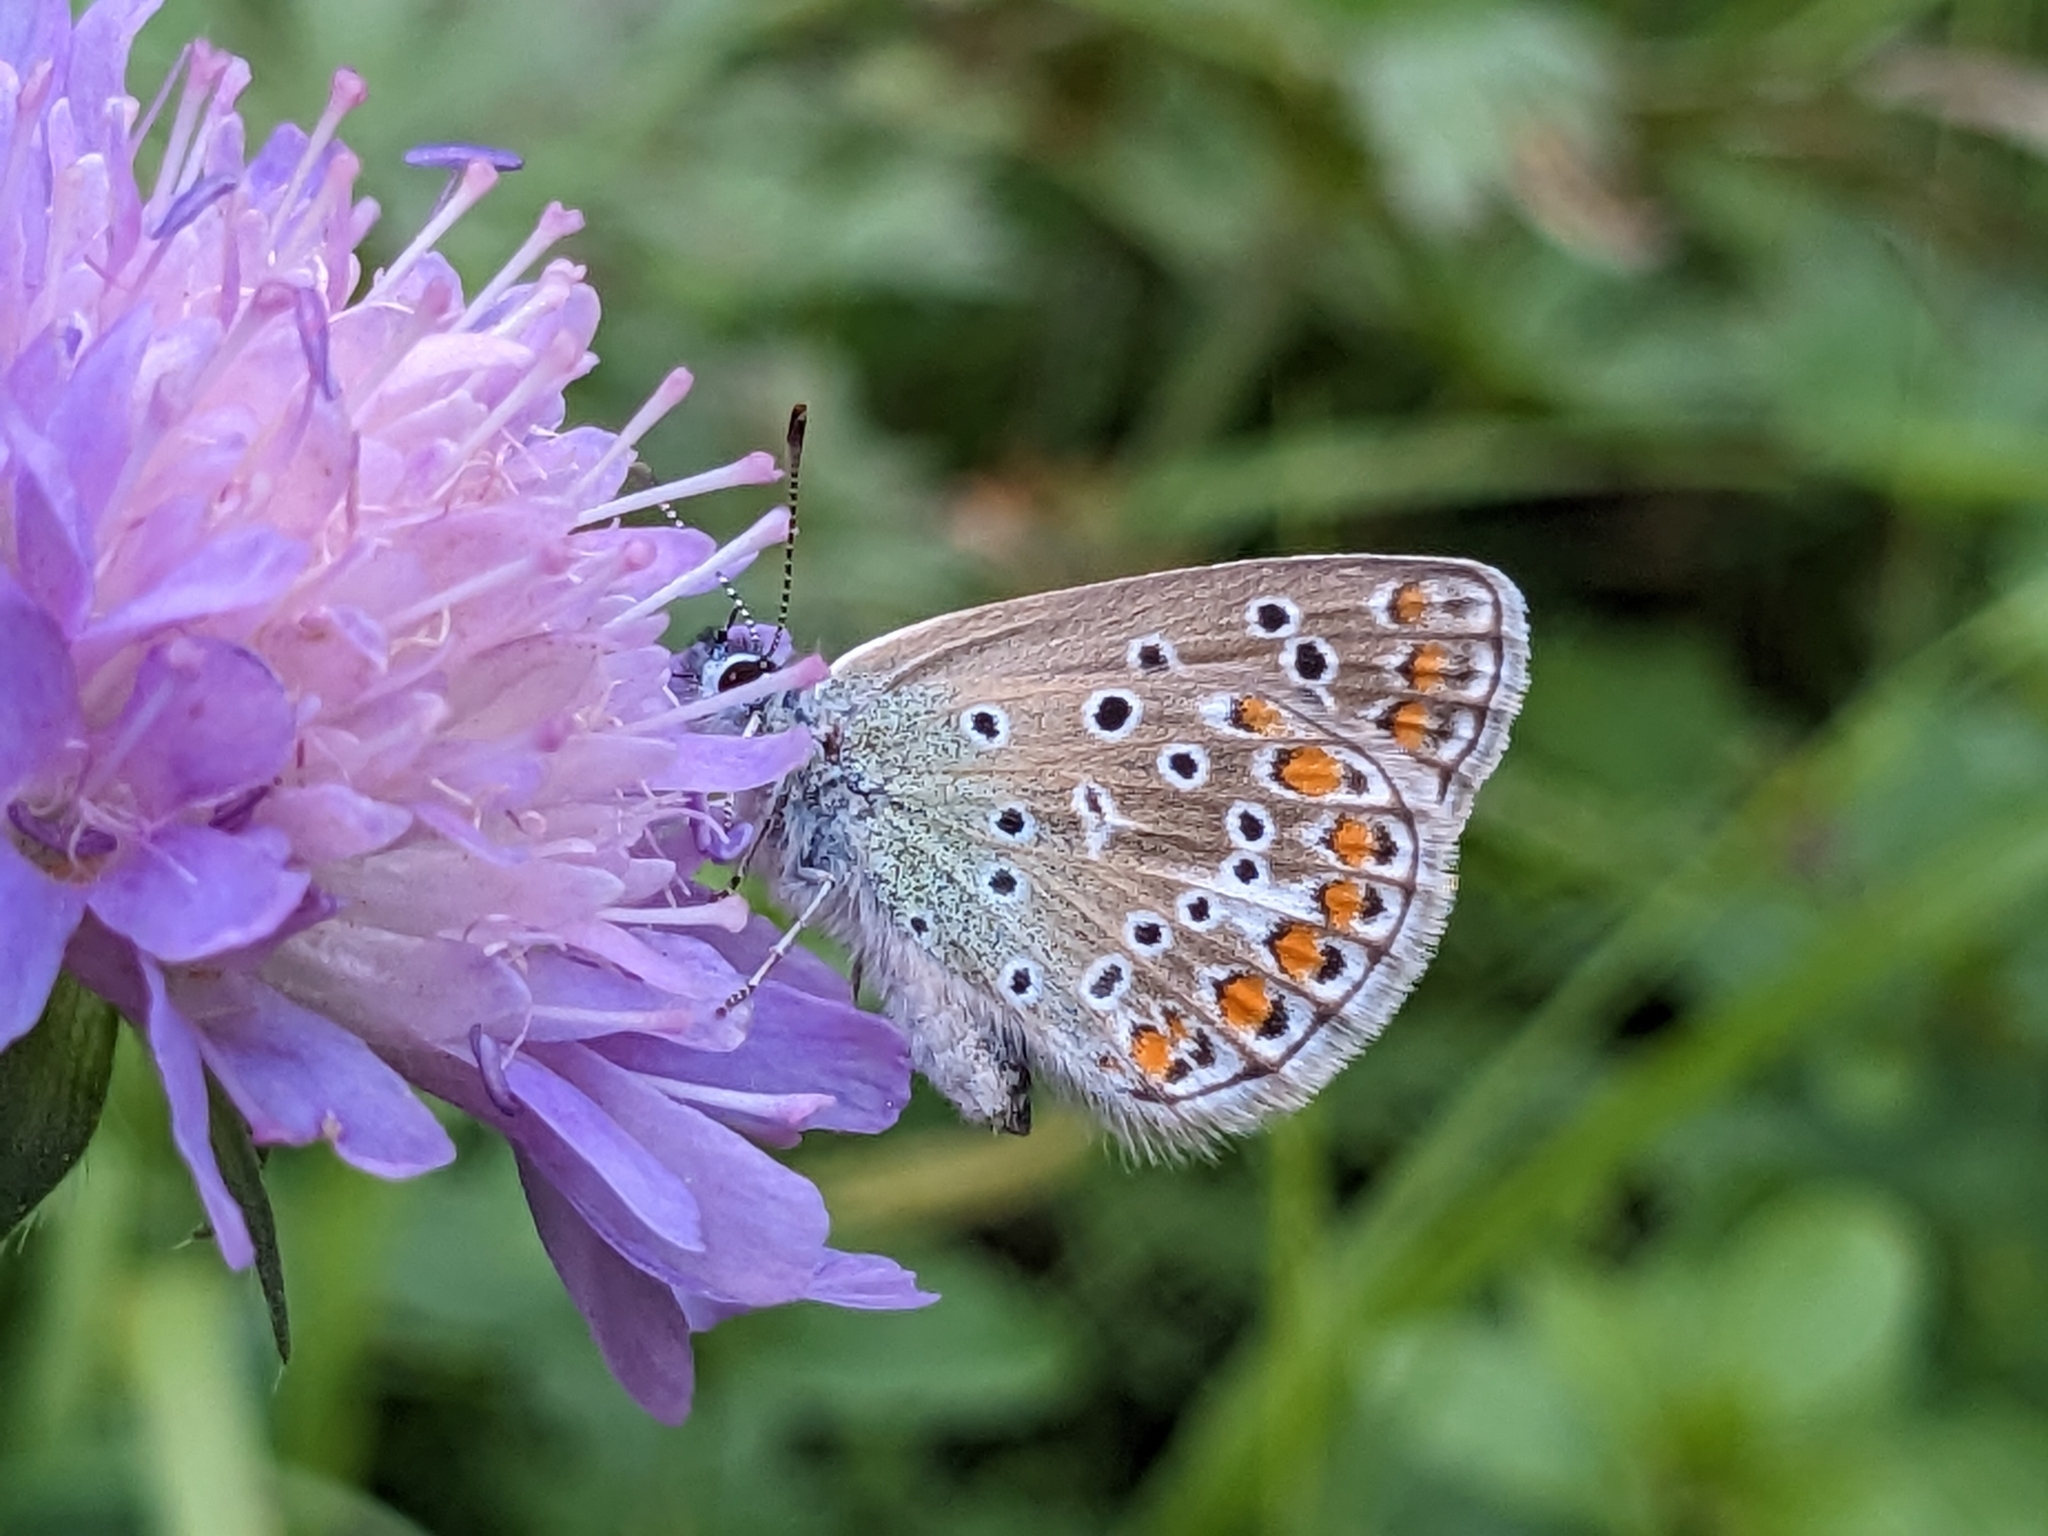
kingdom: Animalia
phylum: Arthropoda
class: Insecta
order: Lepidoptera
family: Lycaenidae
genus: Polyommatus
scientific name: Polyommatus icarus
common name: Common blue
